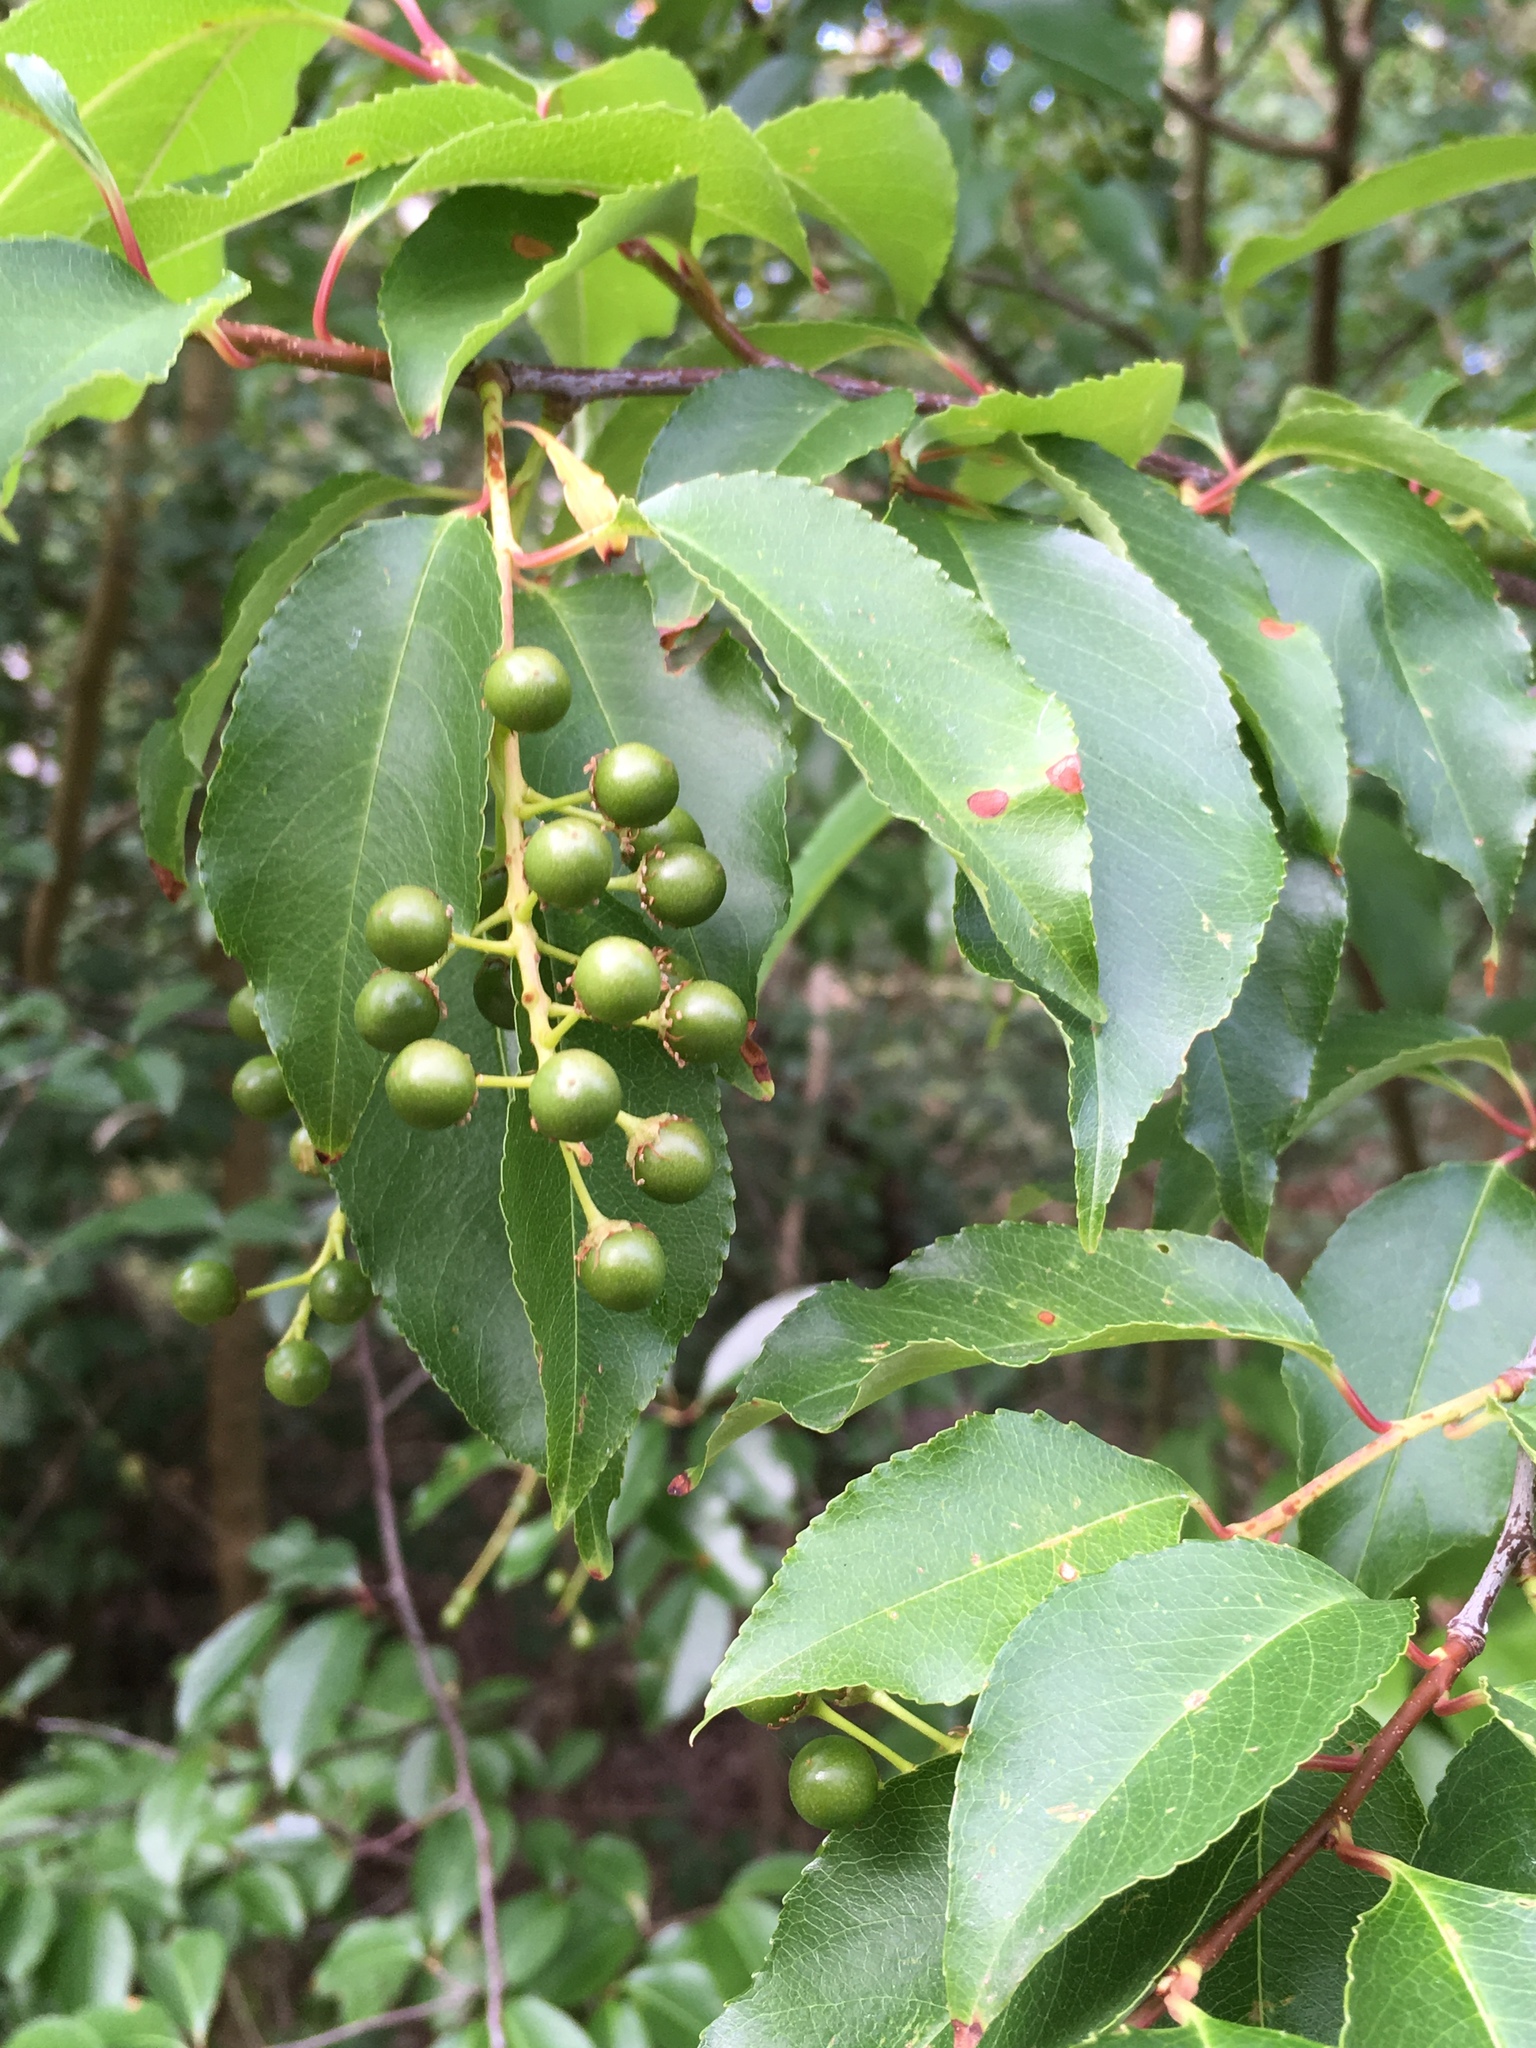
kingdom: Plantae
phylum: Tracheophyta
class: Magnoliopsida
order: Rosales
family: Rosaceae
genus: Prunus
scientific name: Prunus serotina
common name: Black cherry
